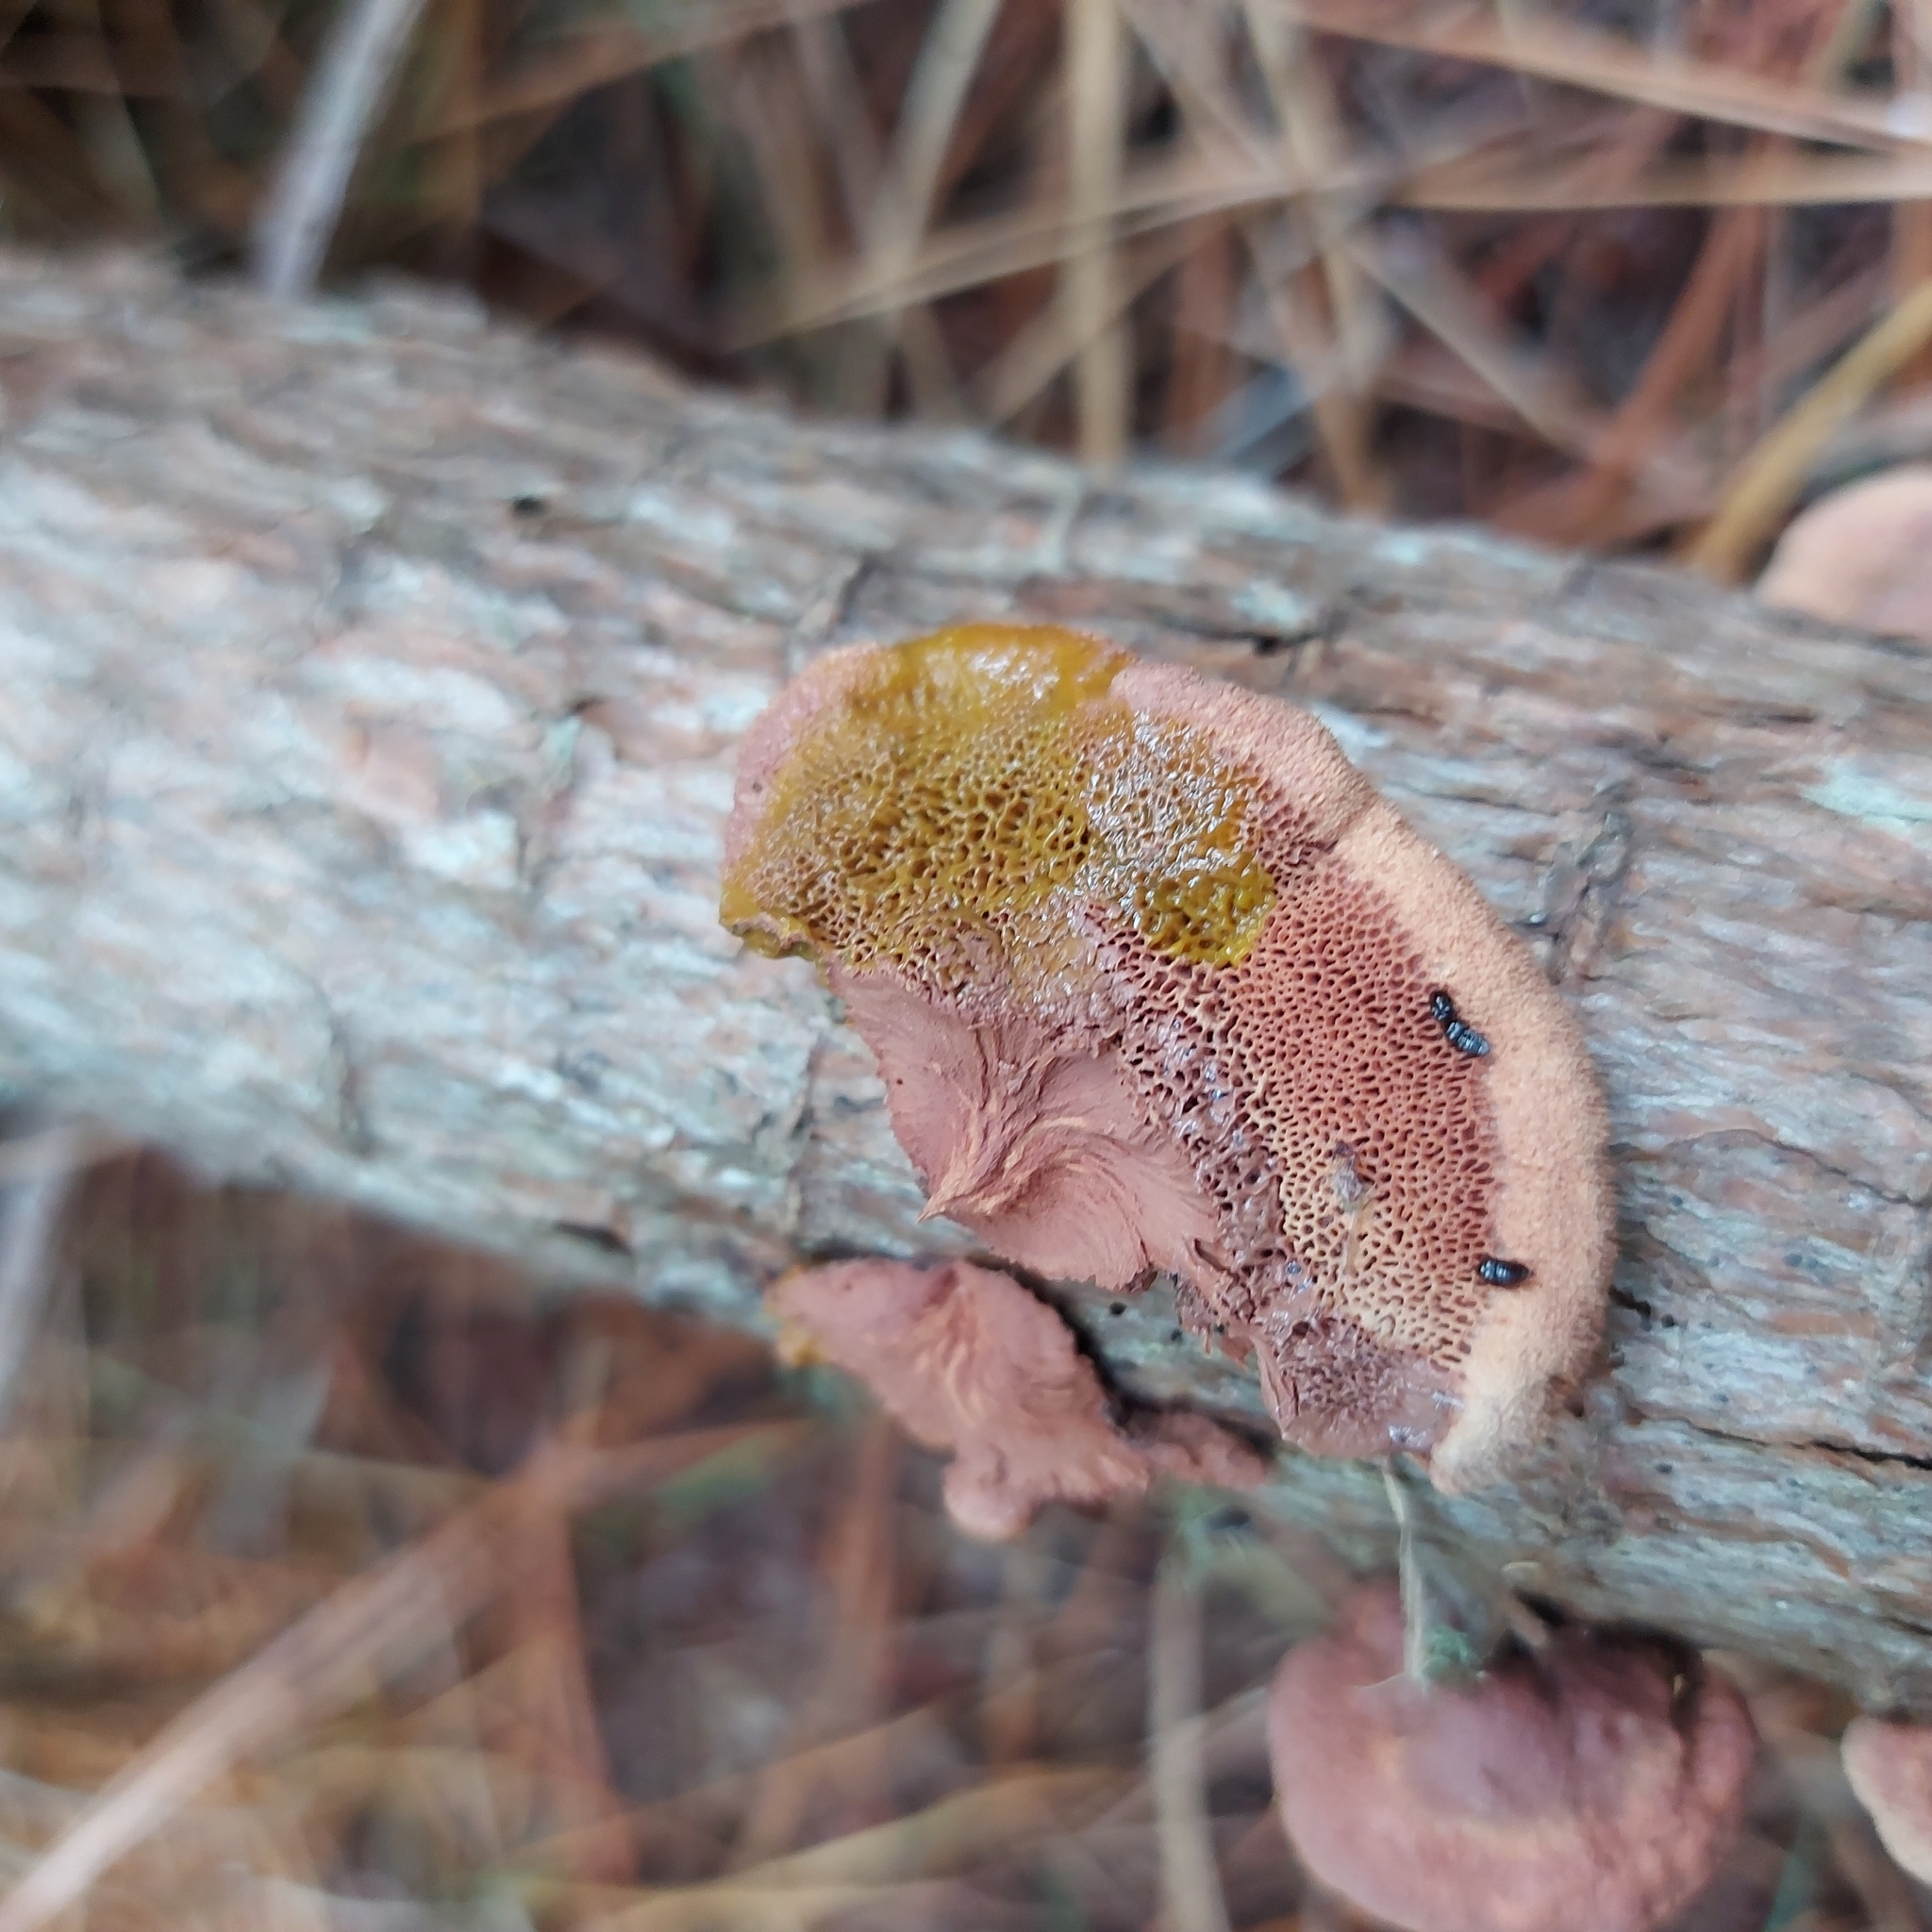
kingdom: Fungi
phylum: Basidiomycota
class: Agaricomycetes
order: Polyporales
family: Phanerochaetaceae
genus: Hapalopilus
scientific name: Hapalopilus rutilans
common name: Tender nesting polypore
